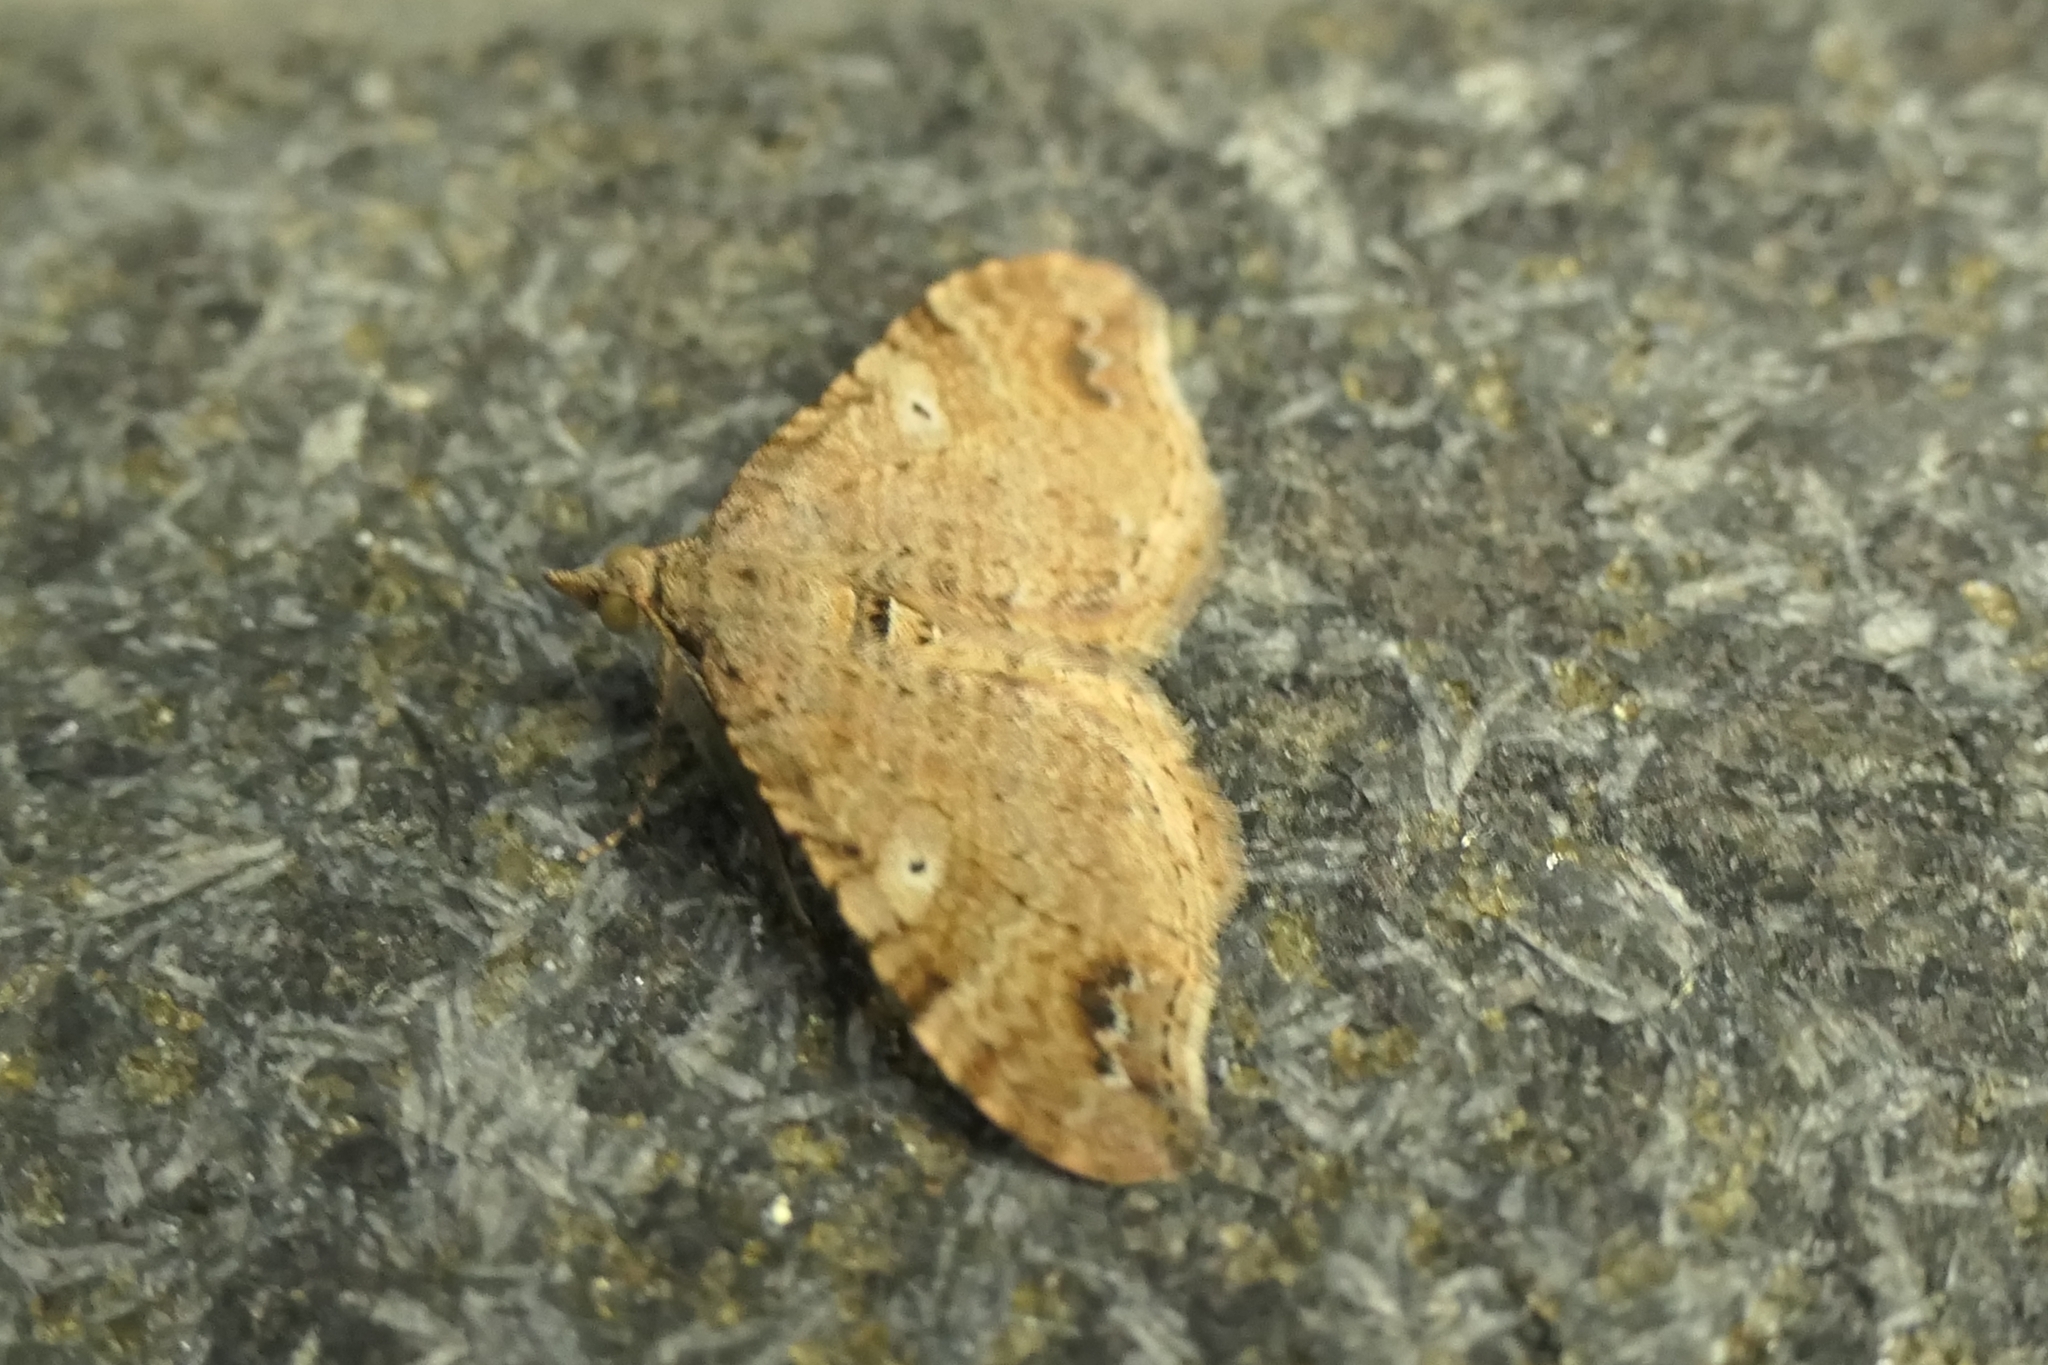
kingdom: Animalia
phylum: Arthropoda
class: Insecta
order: Lepidoptera
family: Geometridae
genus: Homodotis
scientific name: Homodotis megaspilata
